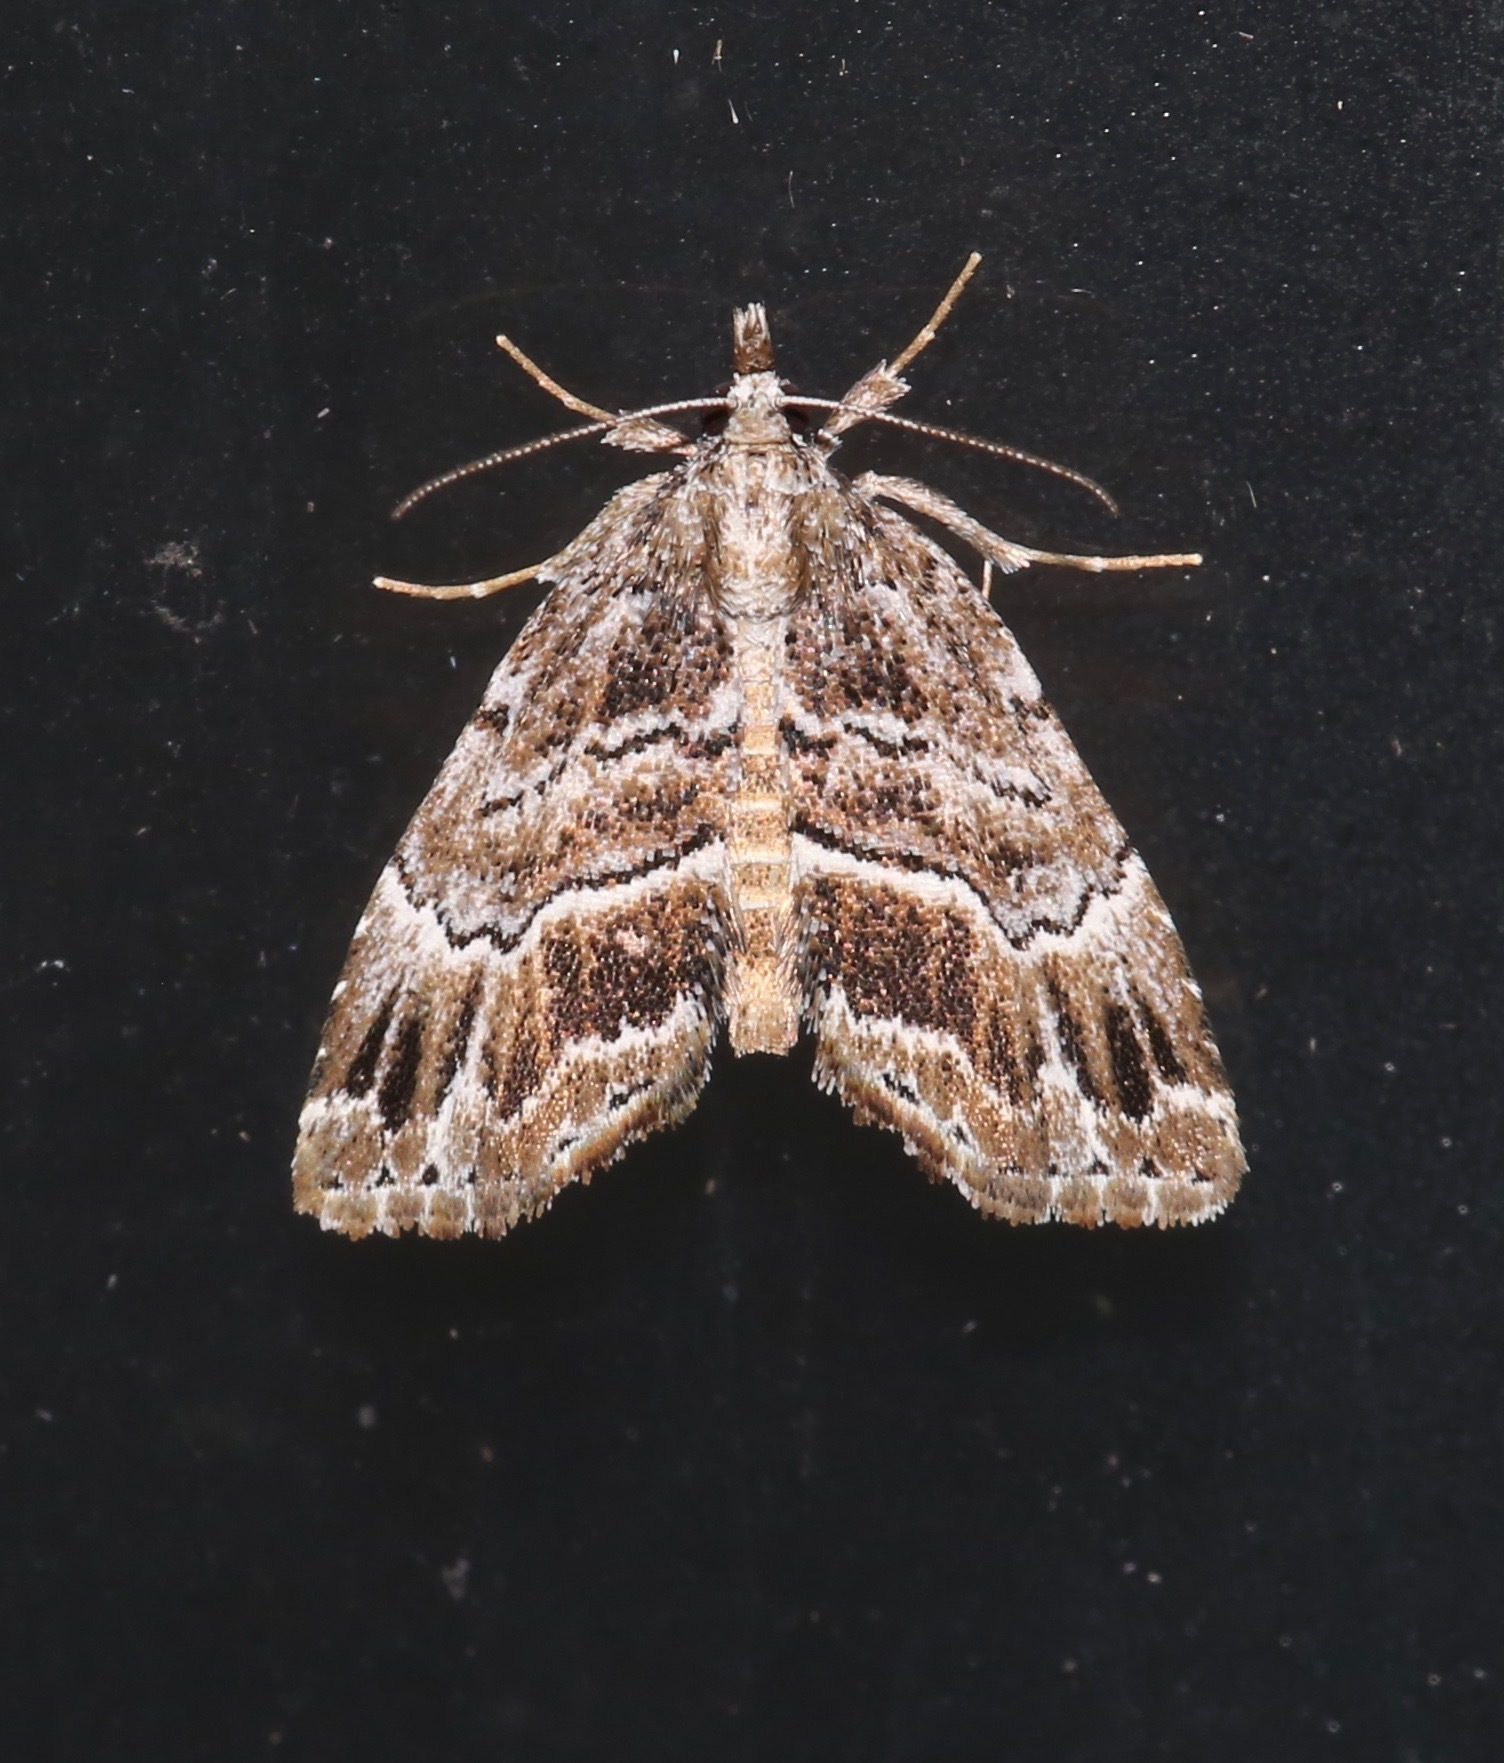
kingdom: Animalia
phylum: Arthropoda
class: Insecta
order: Lepidoptera
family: Erebidae
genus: Cutina
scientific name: Cutina arcuata
